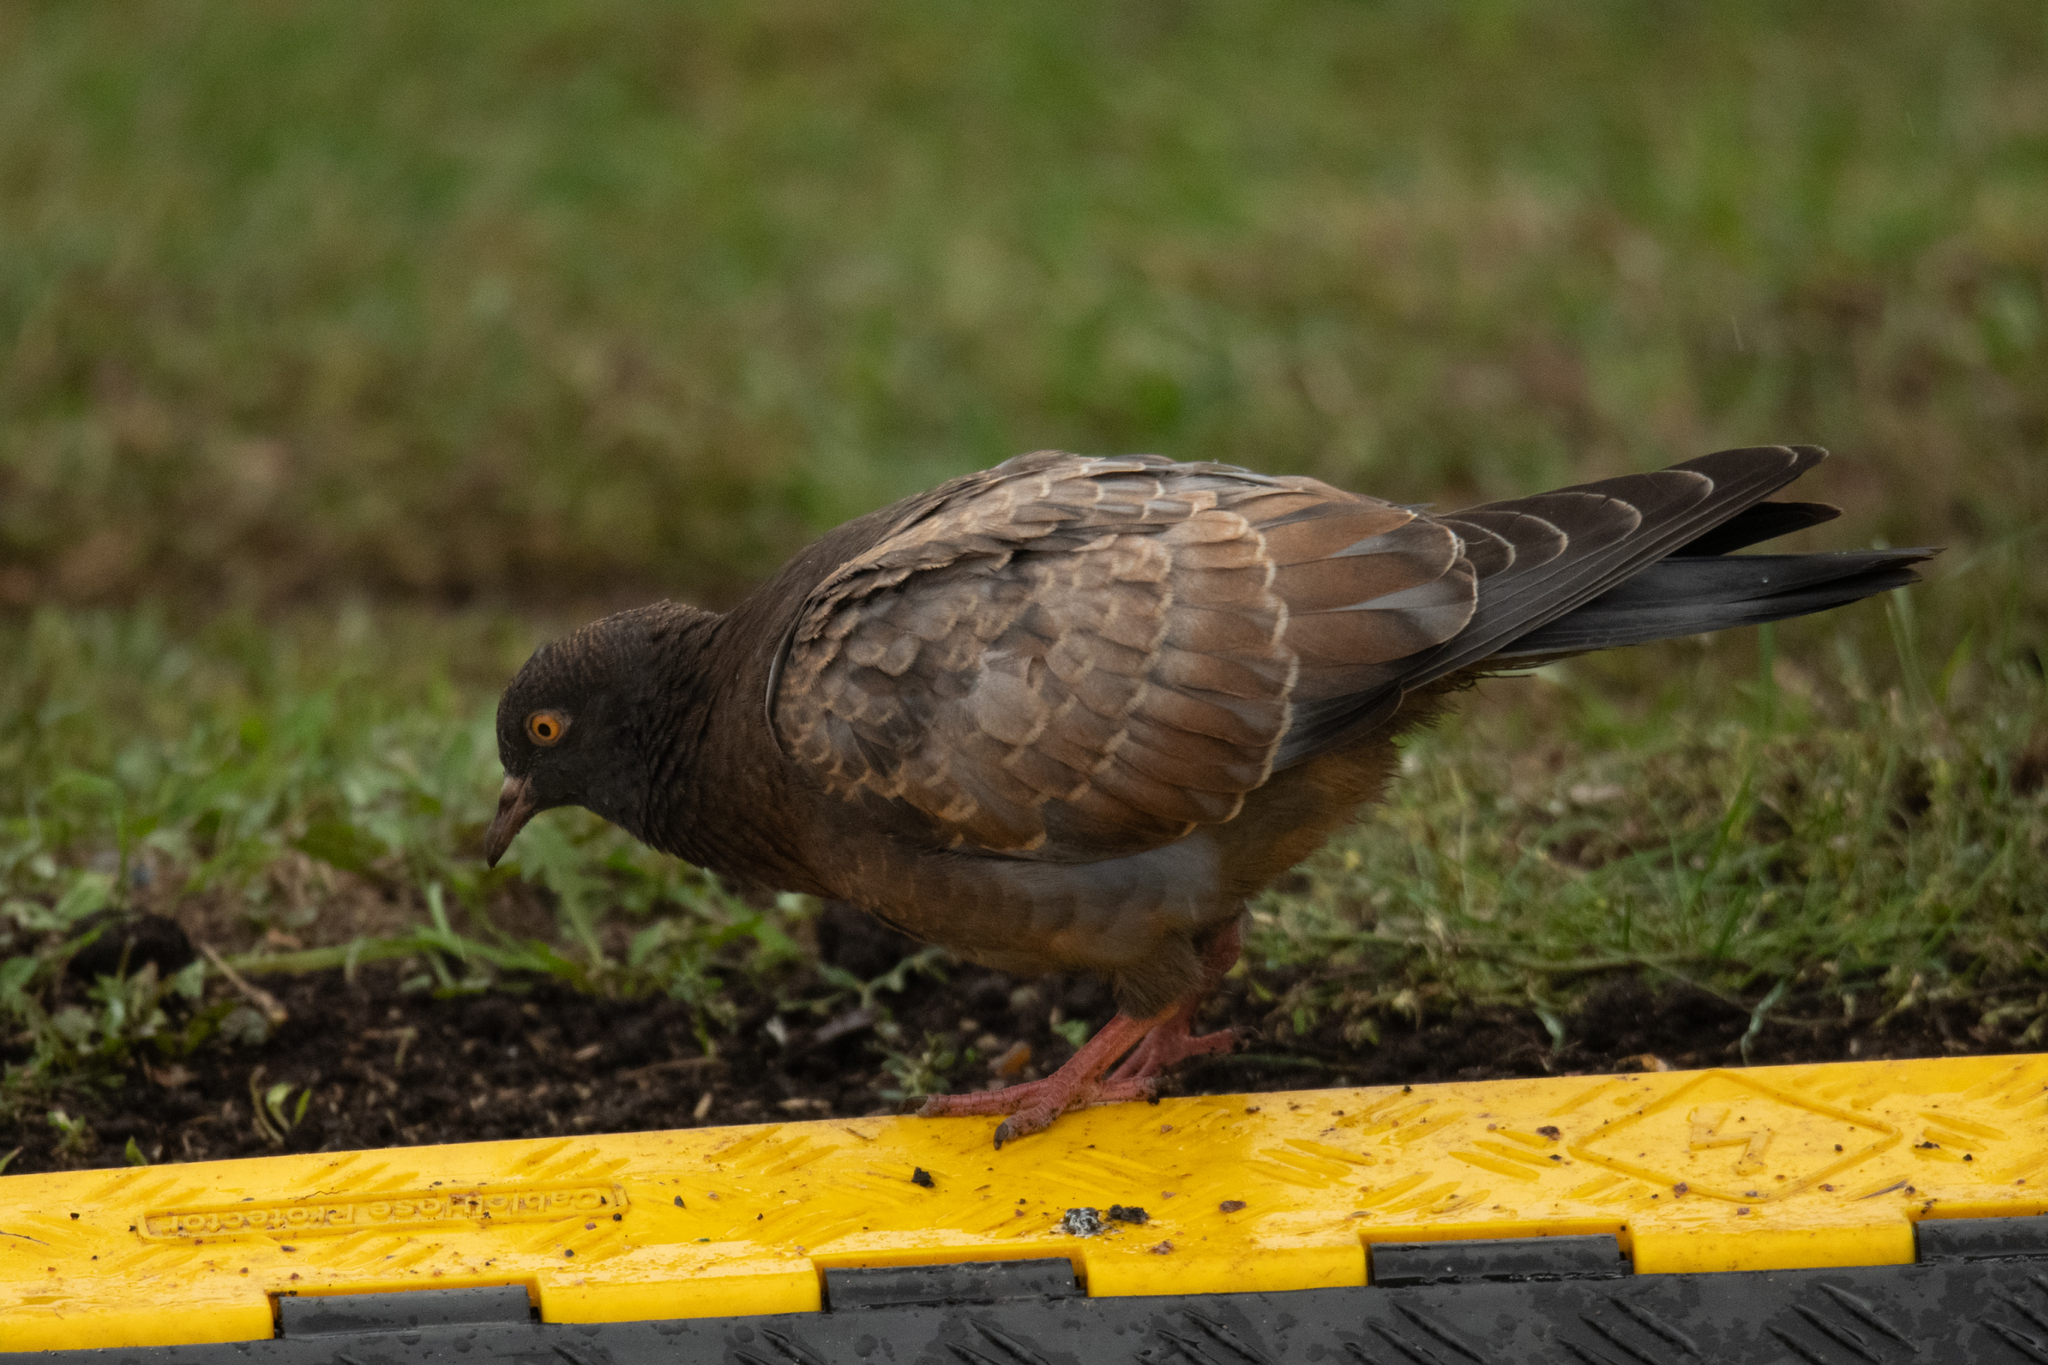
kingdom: Animalia
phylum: Chordata
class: Aves
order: Columbiformes
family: Columbidae
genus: Columba
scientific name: Columba livia
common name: Rock pigeon
